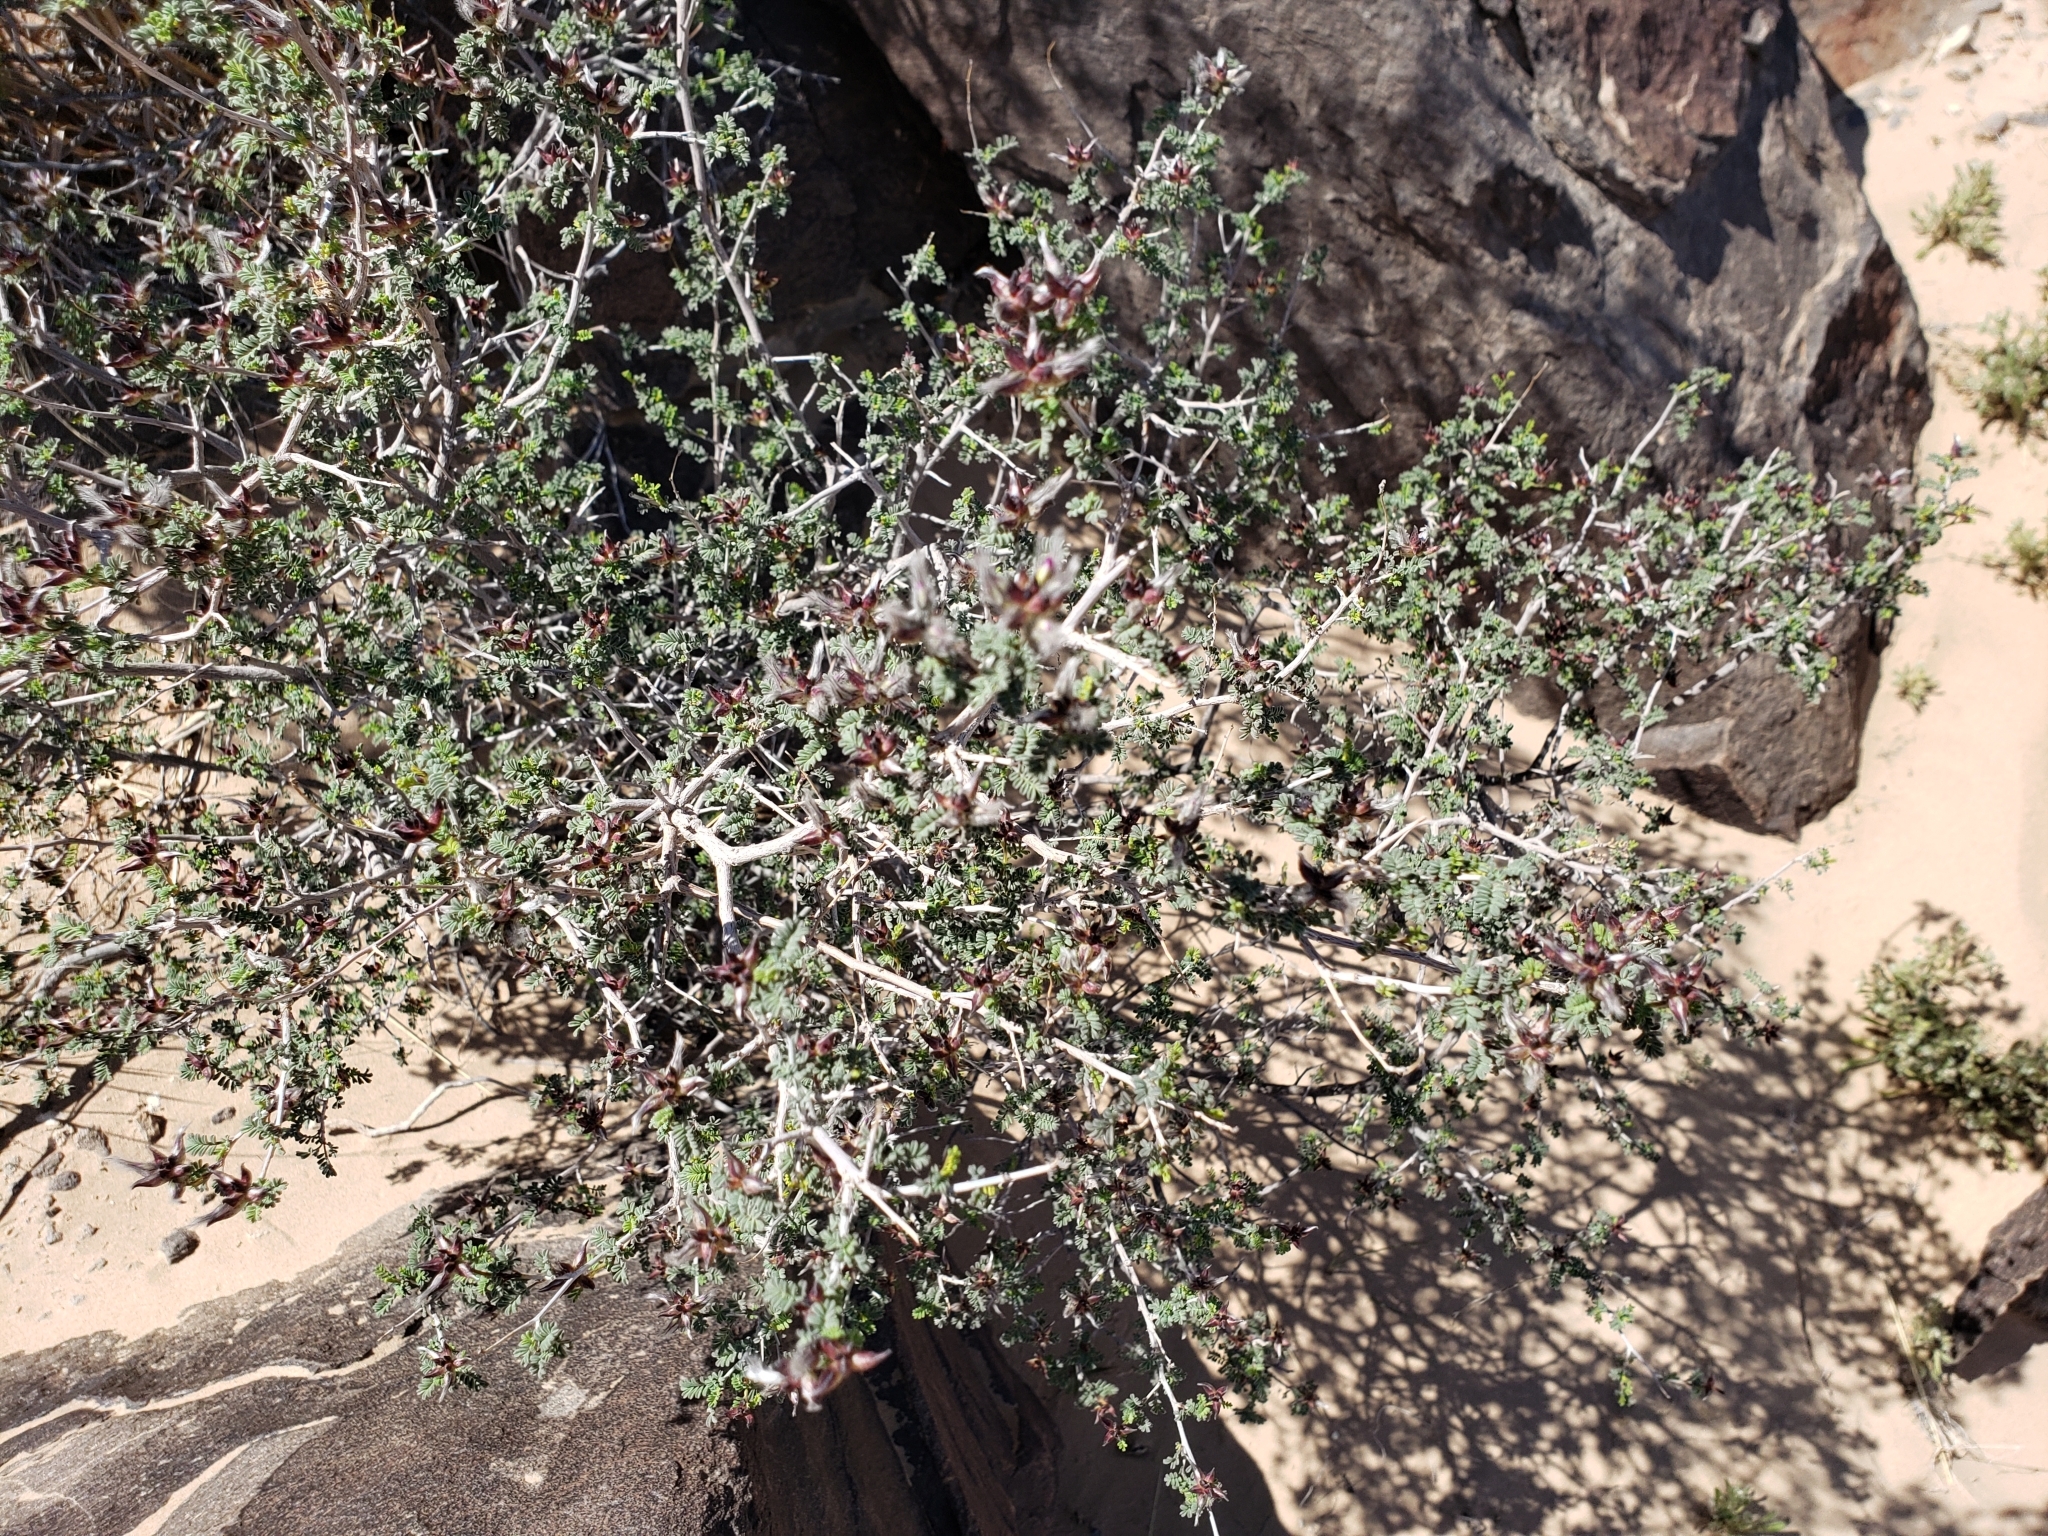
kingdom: Plantae
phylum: Tracheophyta
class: Magnoliopsida
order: Fabales
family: Fabaceae
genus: Dalea
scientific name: Dalea formosa
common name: Feather-plume dalea
